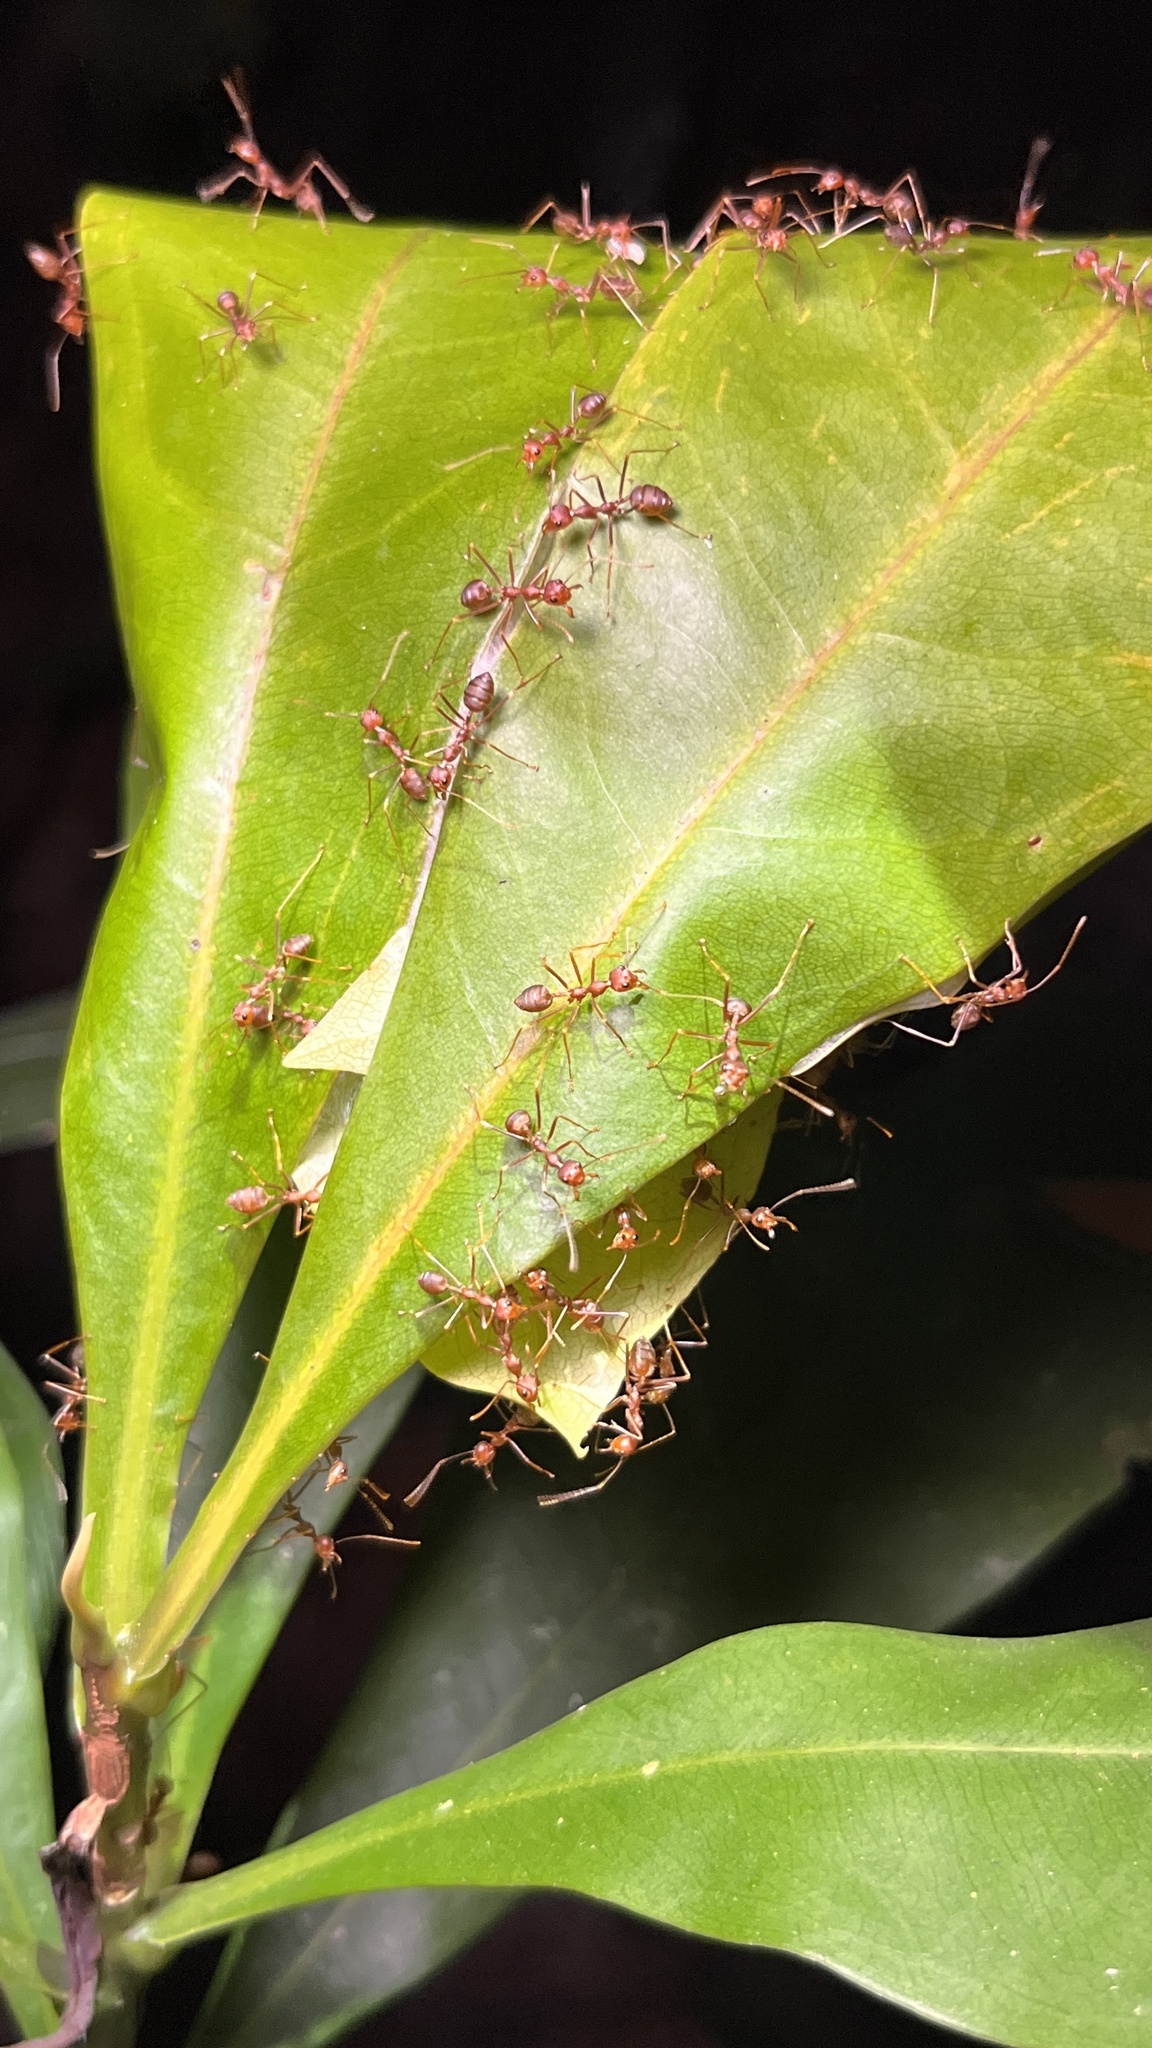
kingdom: Animalia
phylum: Arthropoda
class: Insecta
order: Hymenoptera
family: Formicidae
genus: Oecophylla
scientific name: Oecophylla smaragdina
